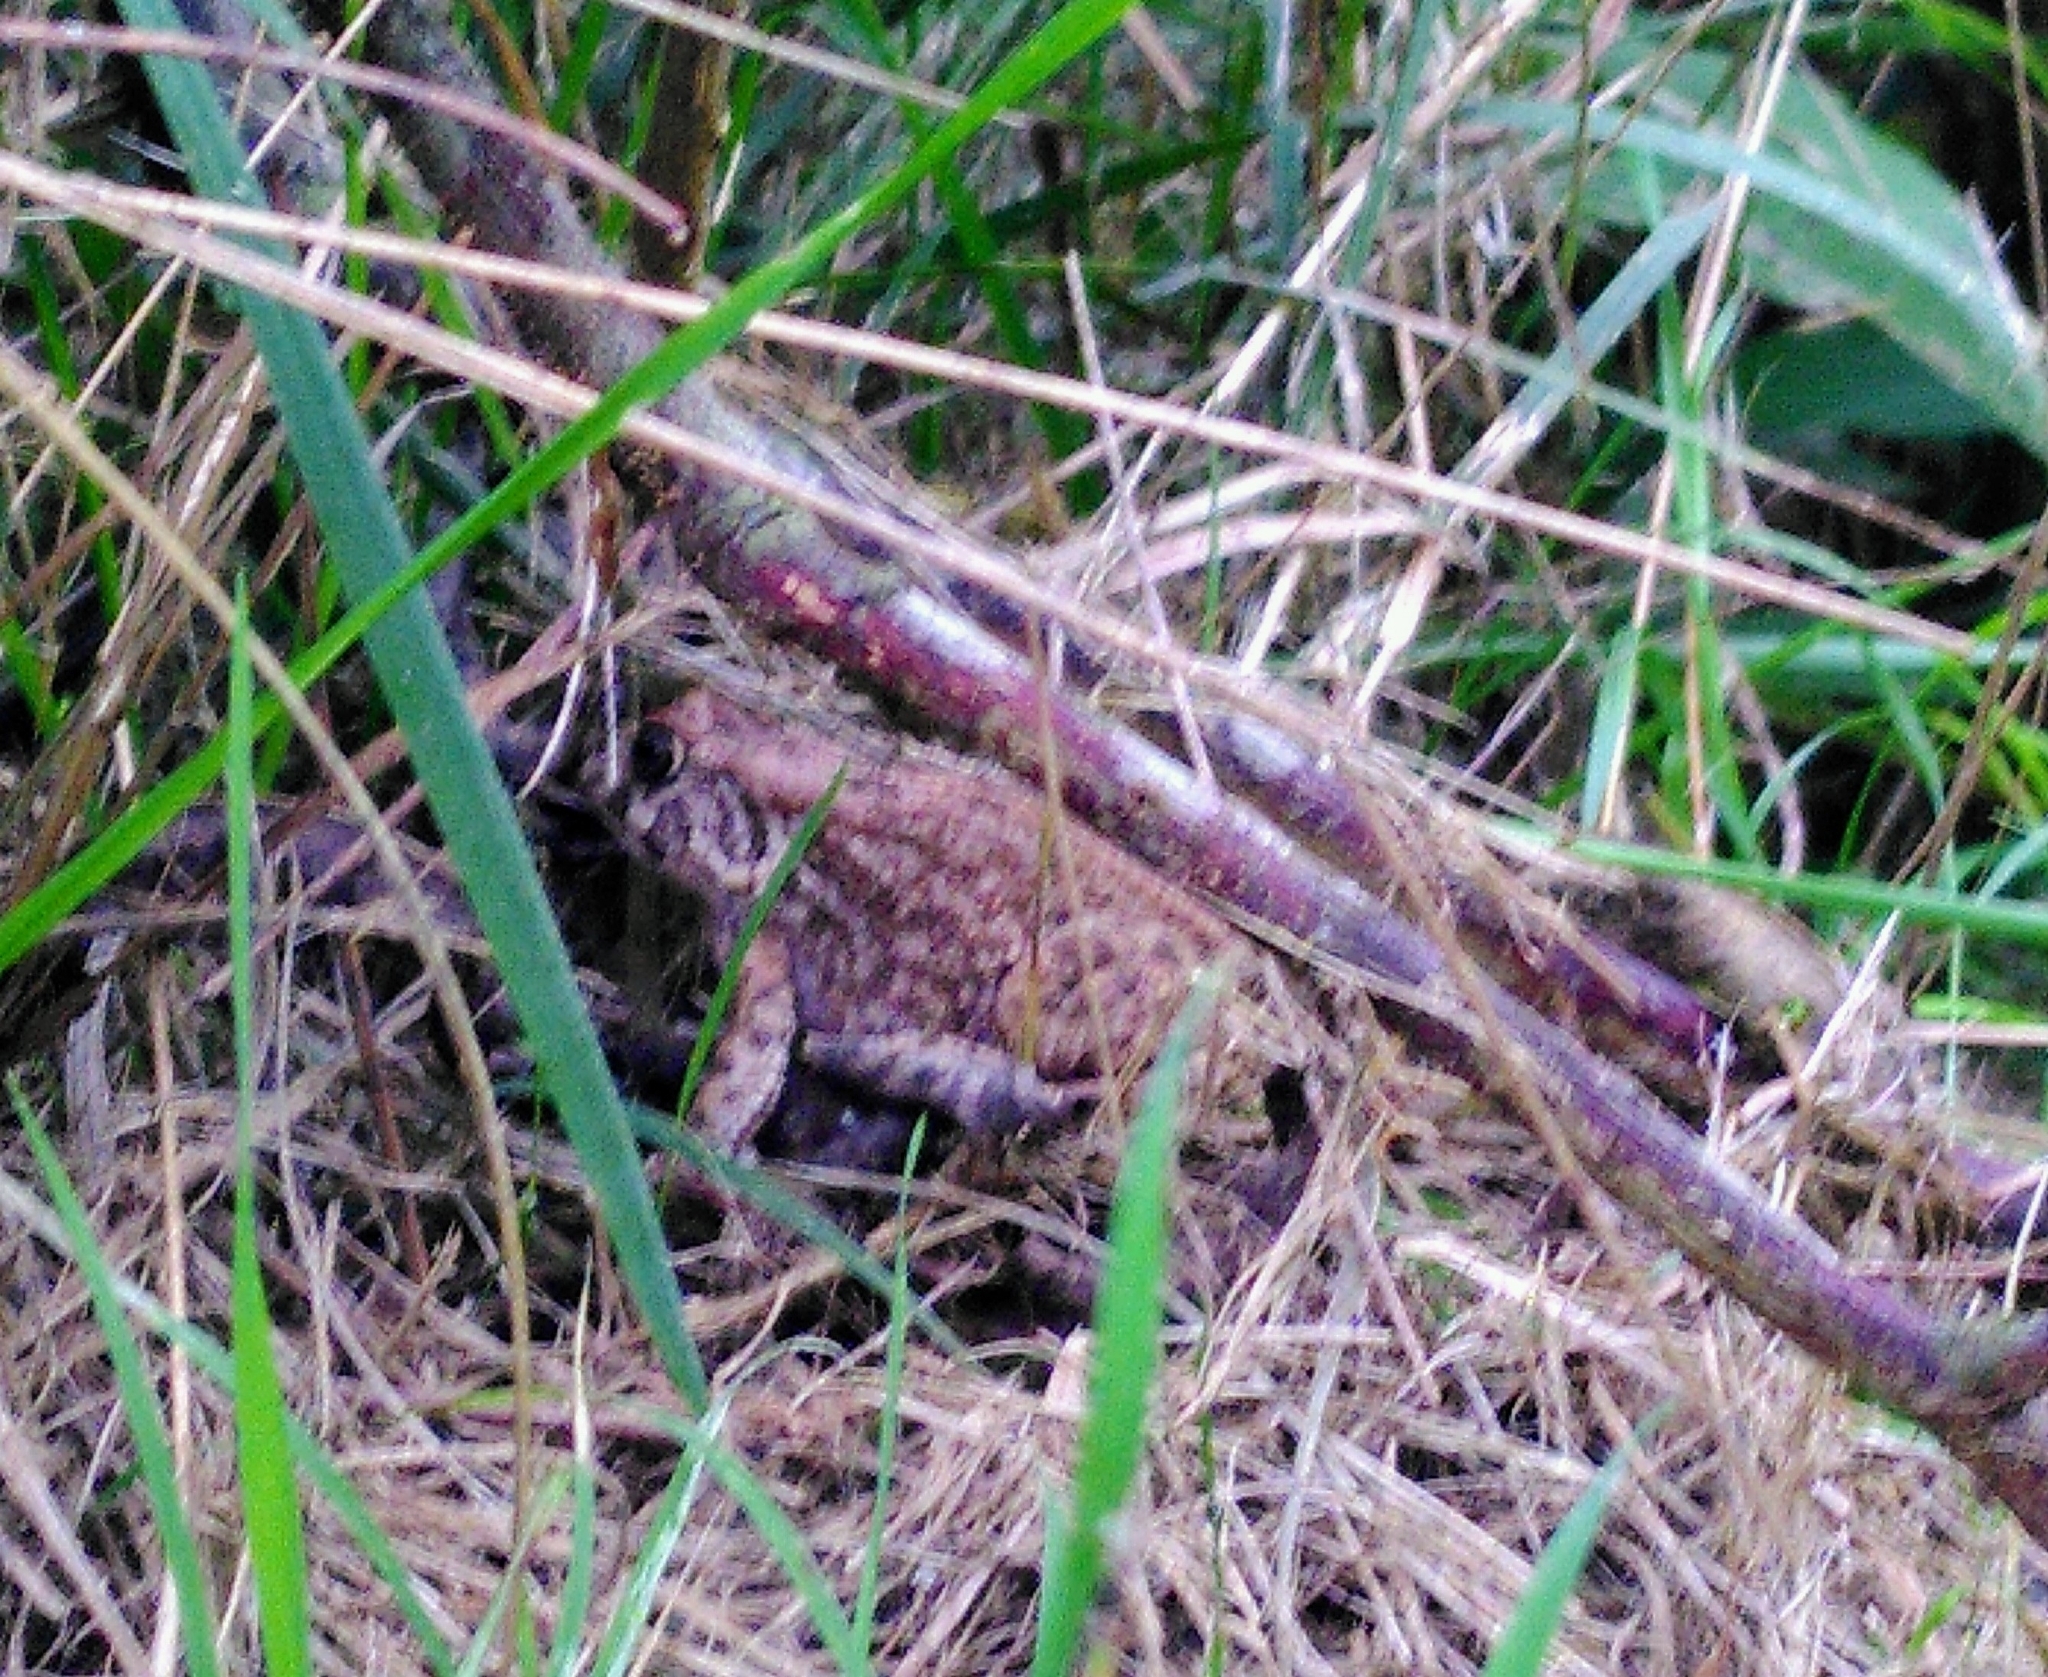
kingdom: Animalia
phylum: Chordata
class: Amphibia
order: Anura
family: Bufonidae
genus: Sclerophrys
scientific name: Sclerophrys gutturalis
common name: African common toad
